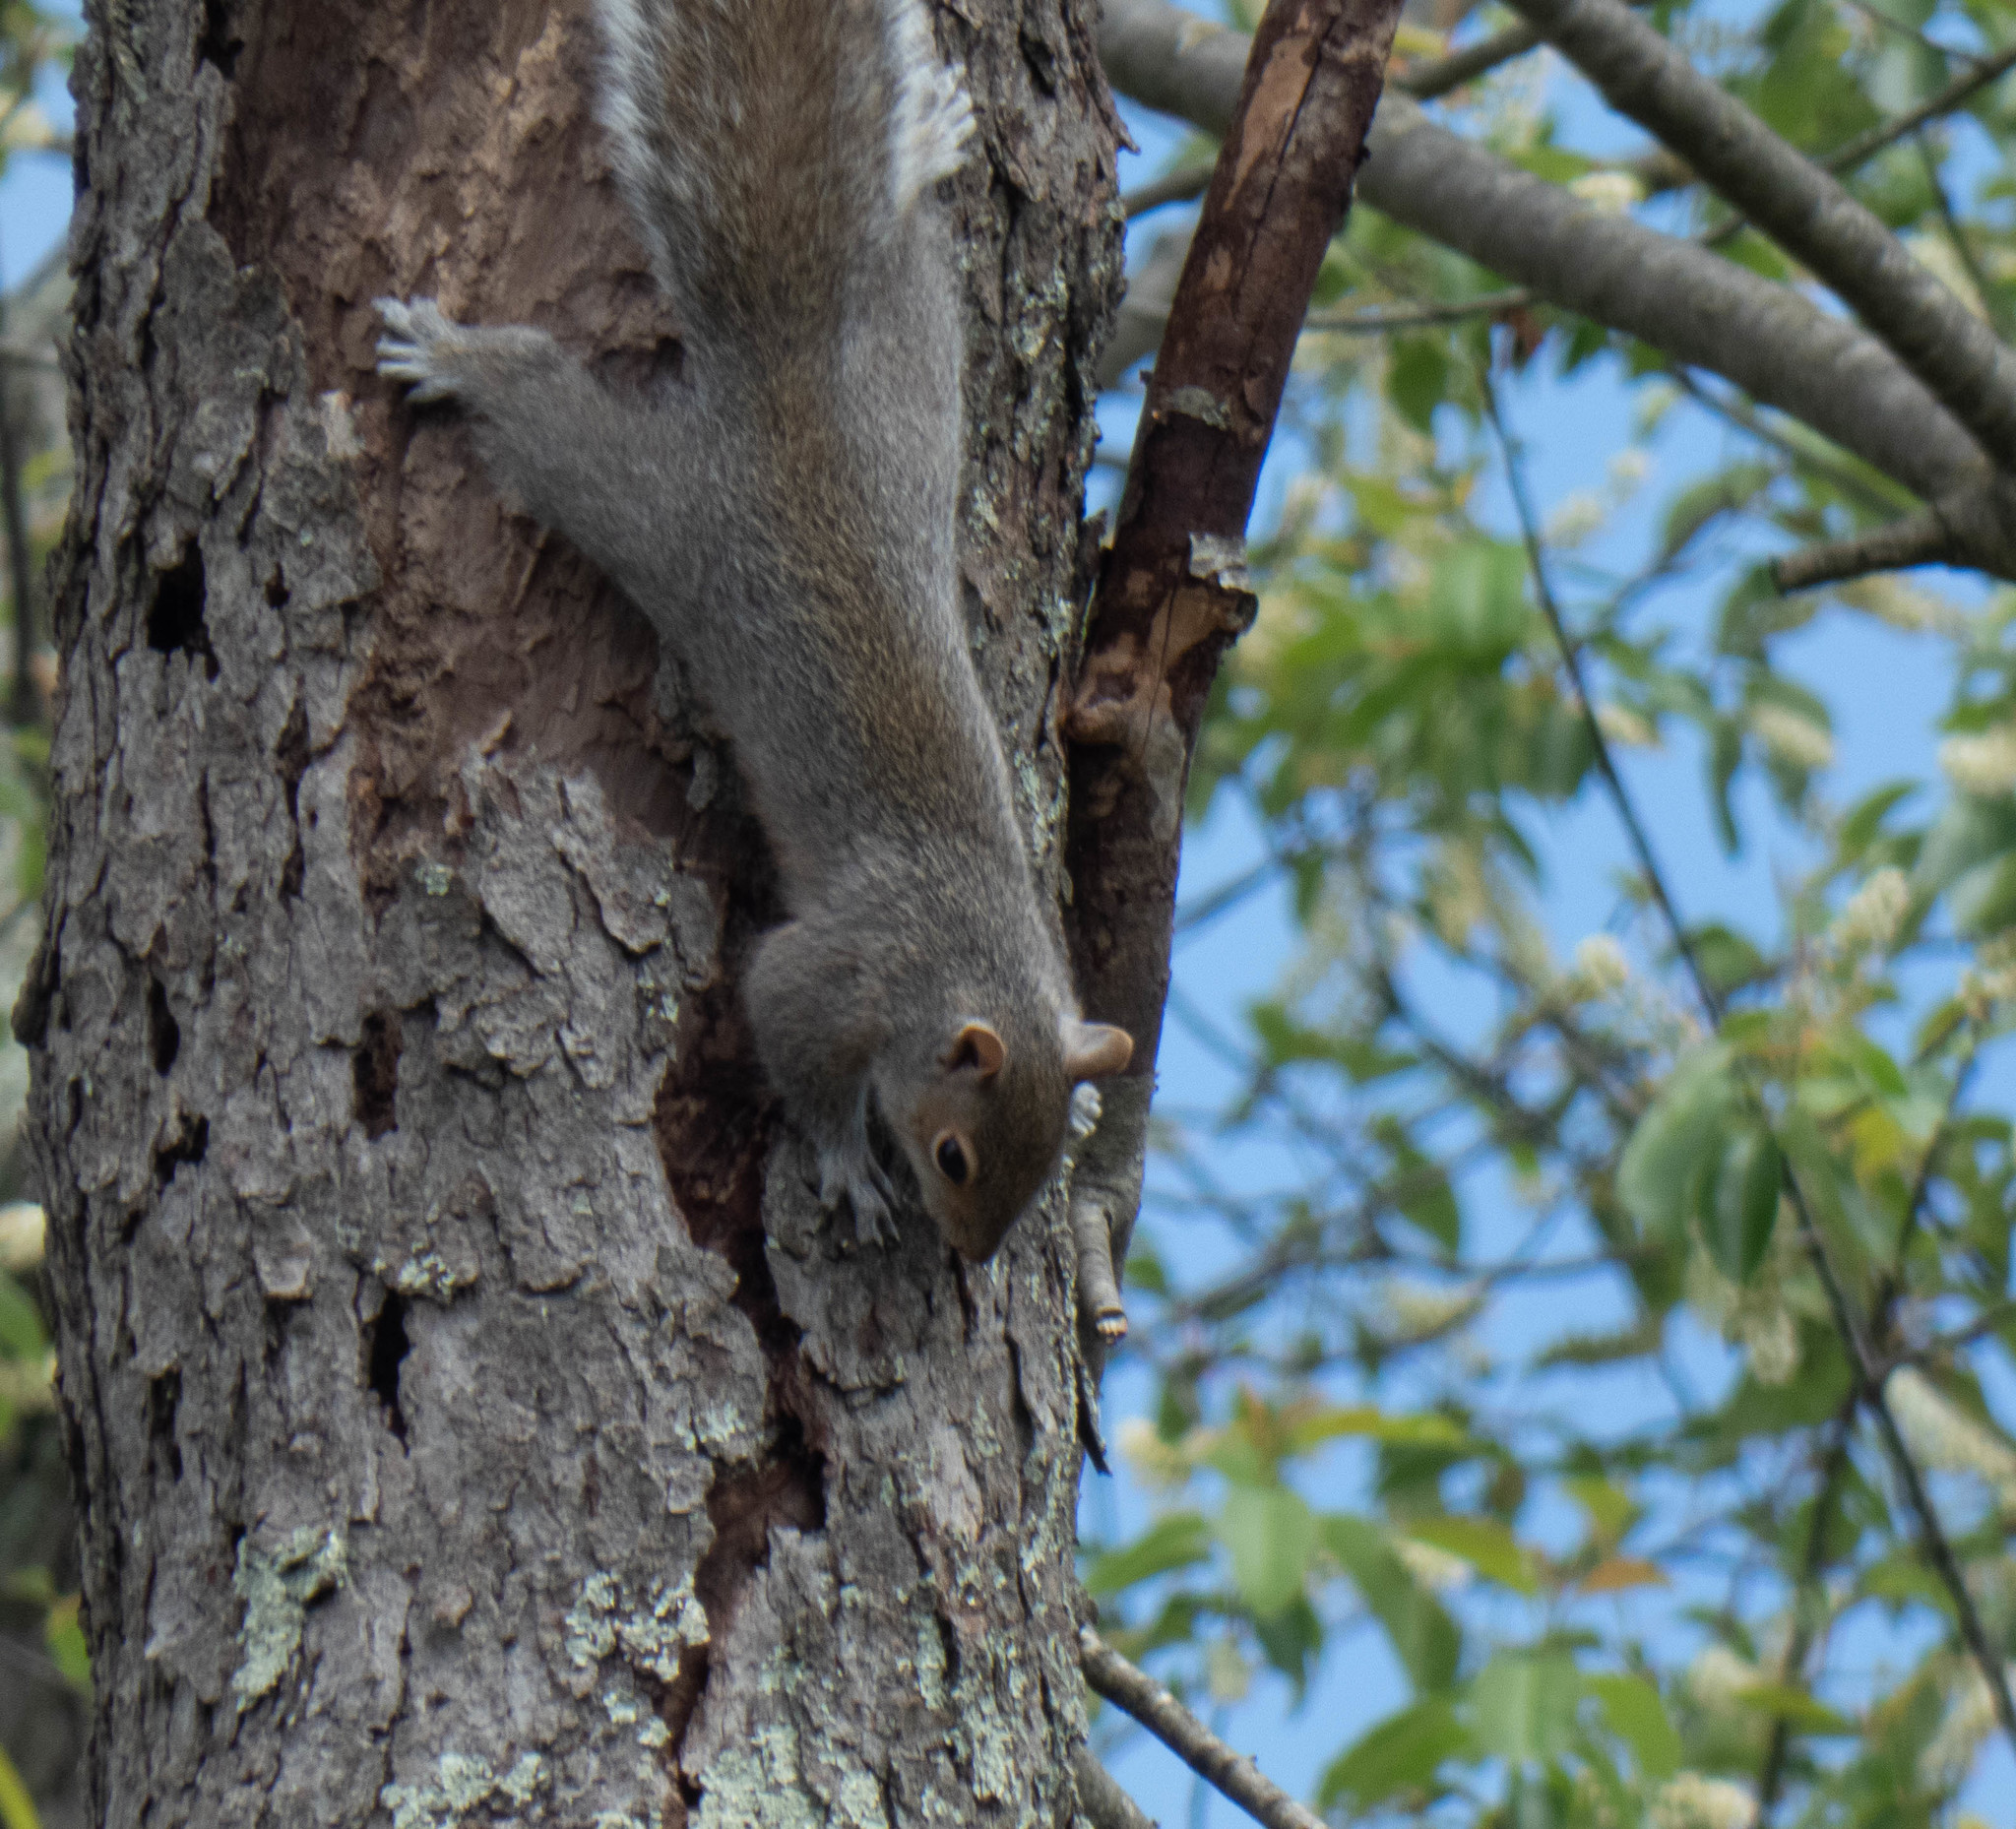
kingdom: Animalia
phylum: Chordata
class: Mammalia
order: Rodentia
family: Sciuridae
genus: Sciurus
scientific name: Sciurus carolinensis
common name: Eastern gray squirrel
